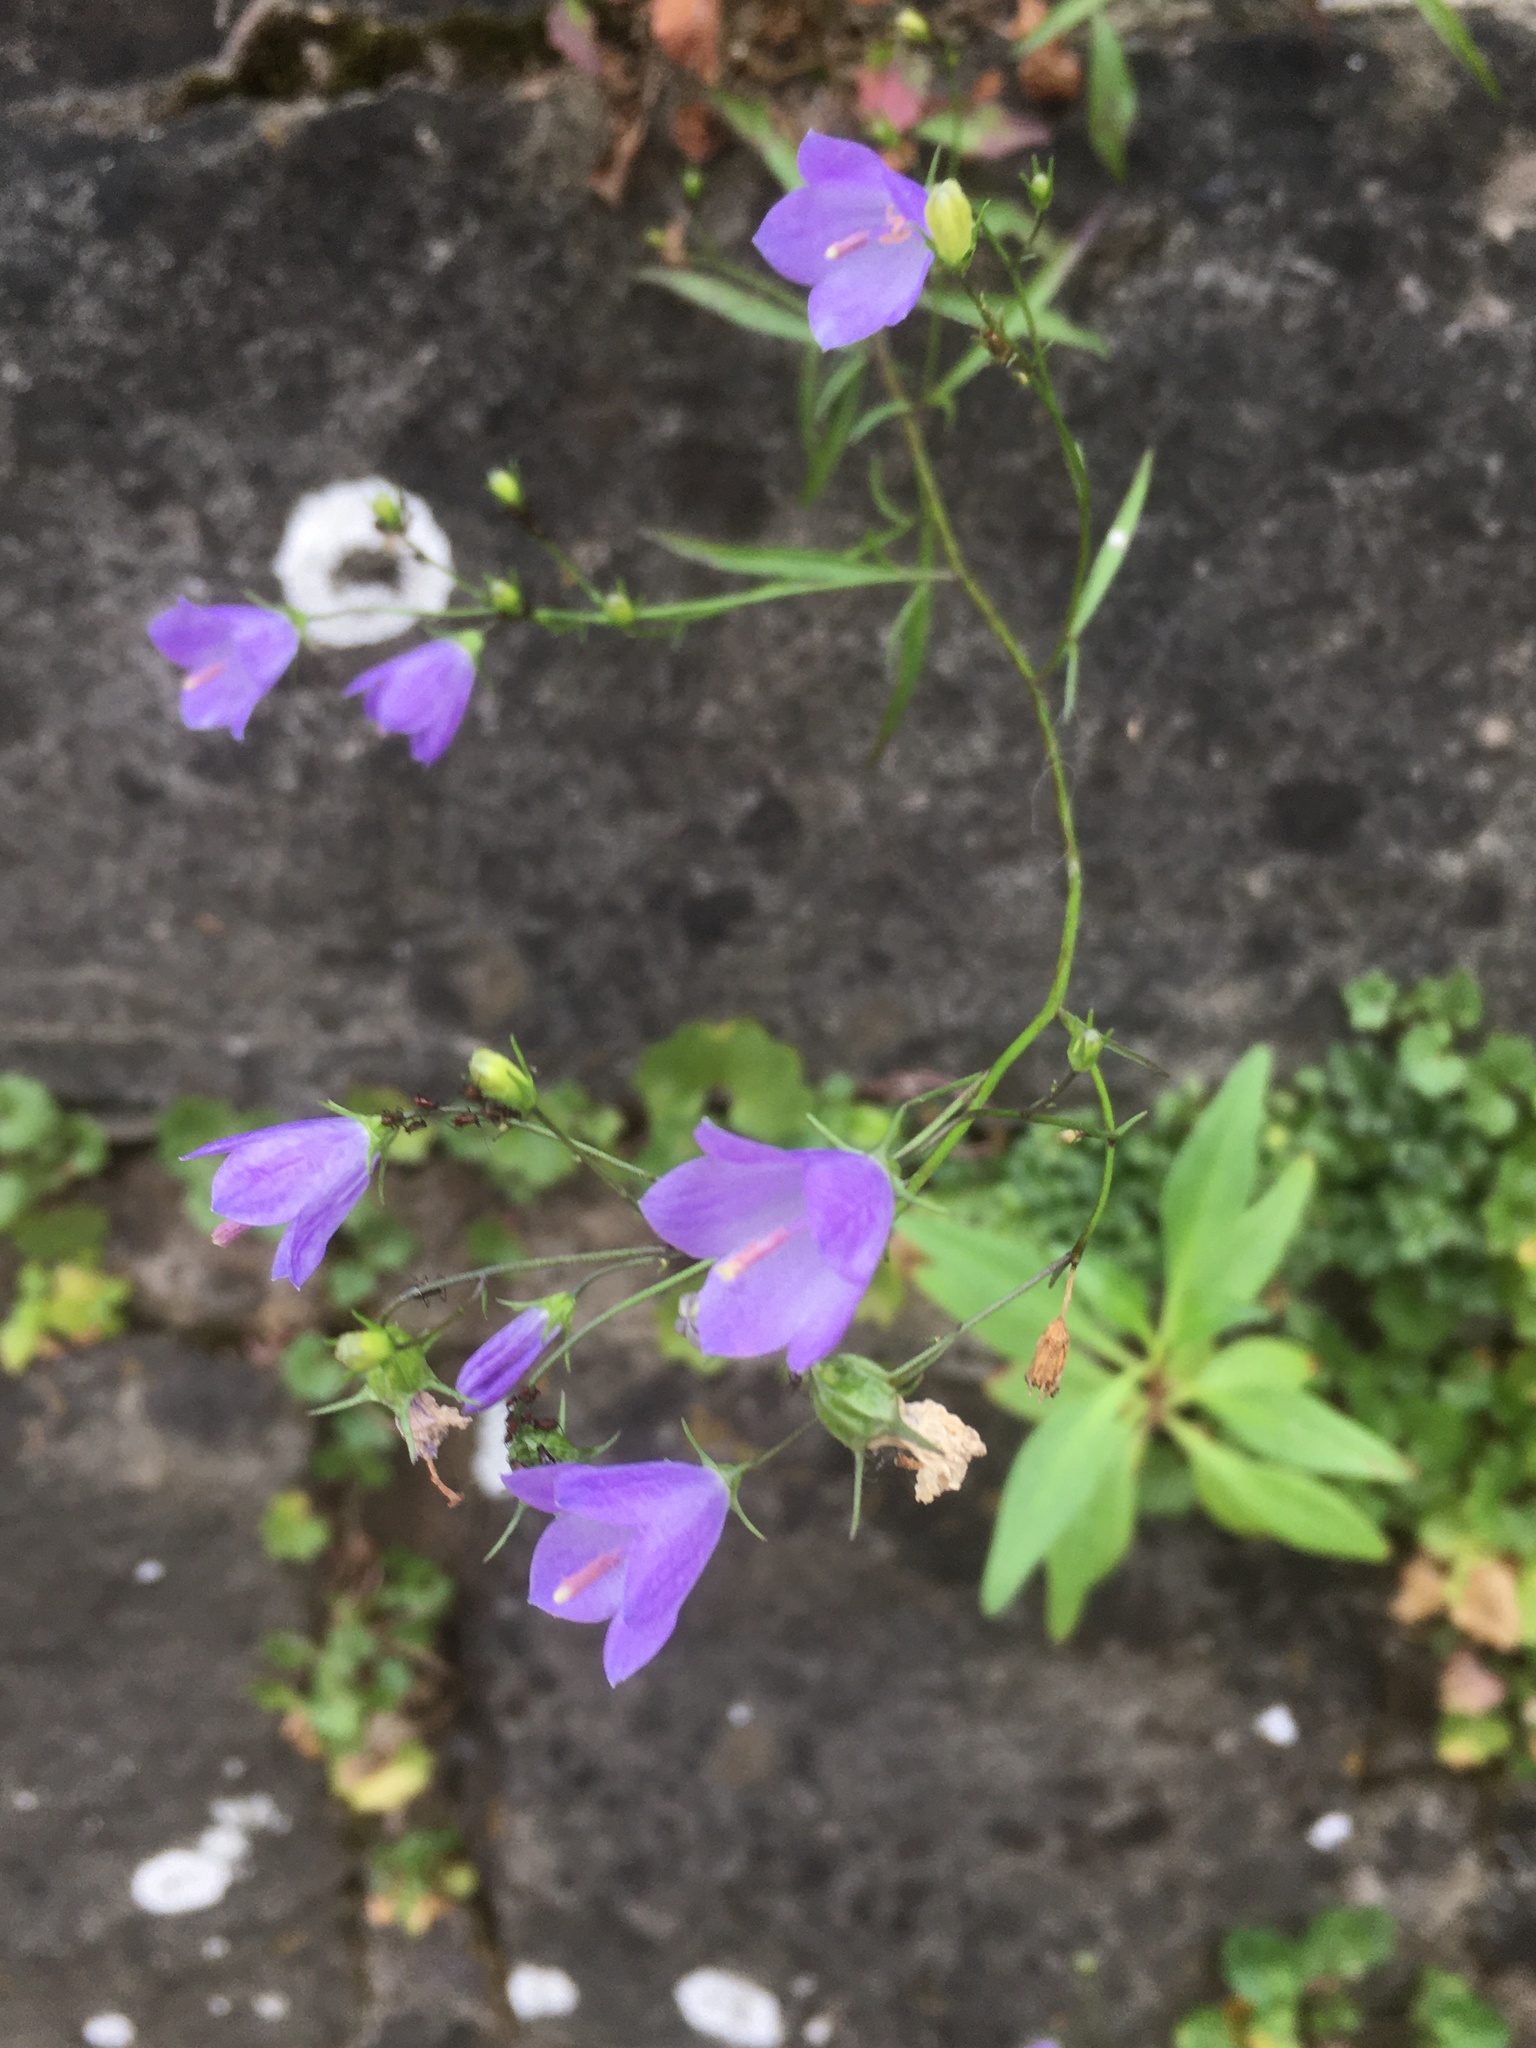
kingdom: Plantae
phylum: Tracheophyta
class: Magnoliopsida
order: Asterales
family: Campanulaceae
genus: Campanula
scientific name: Campanula rotundifolia
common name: Harebell
